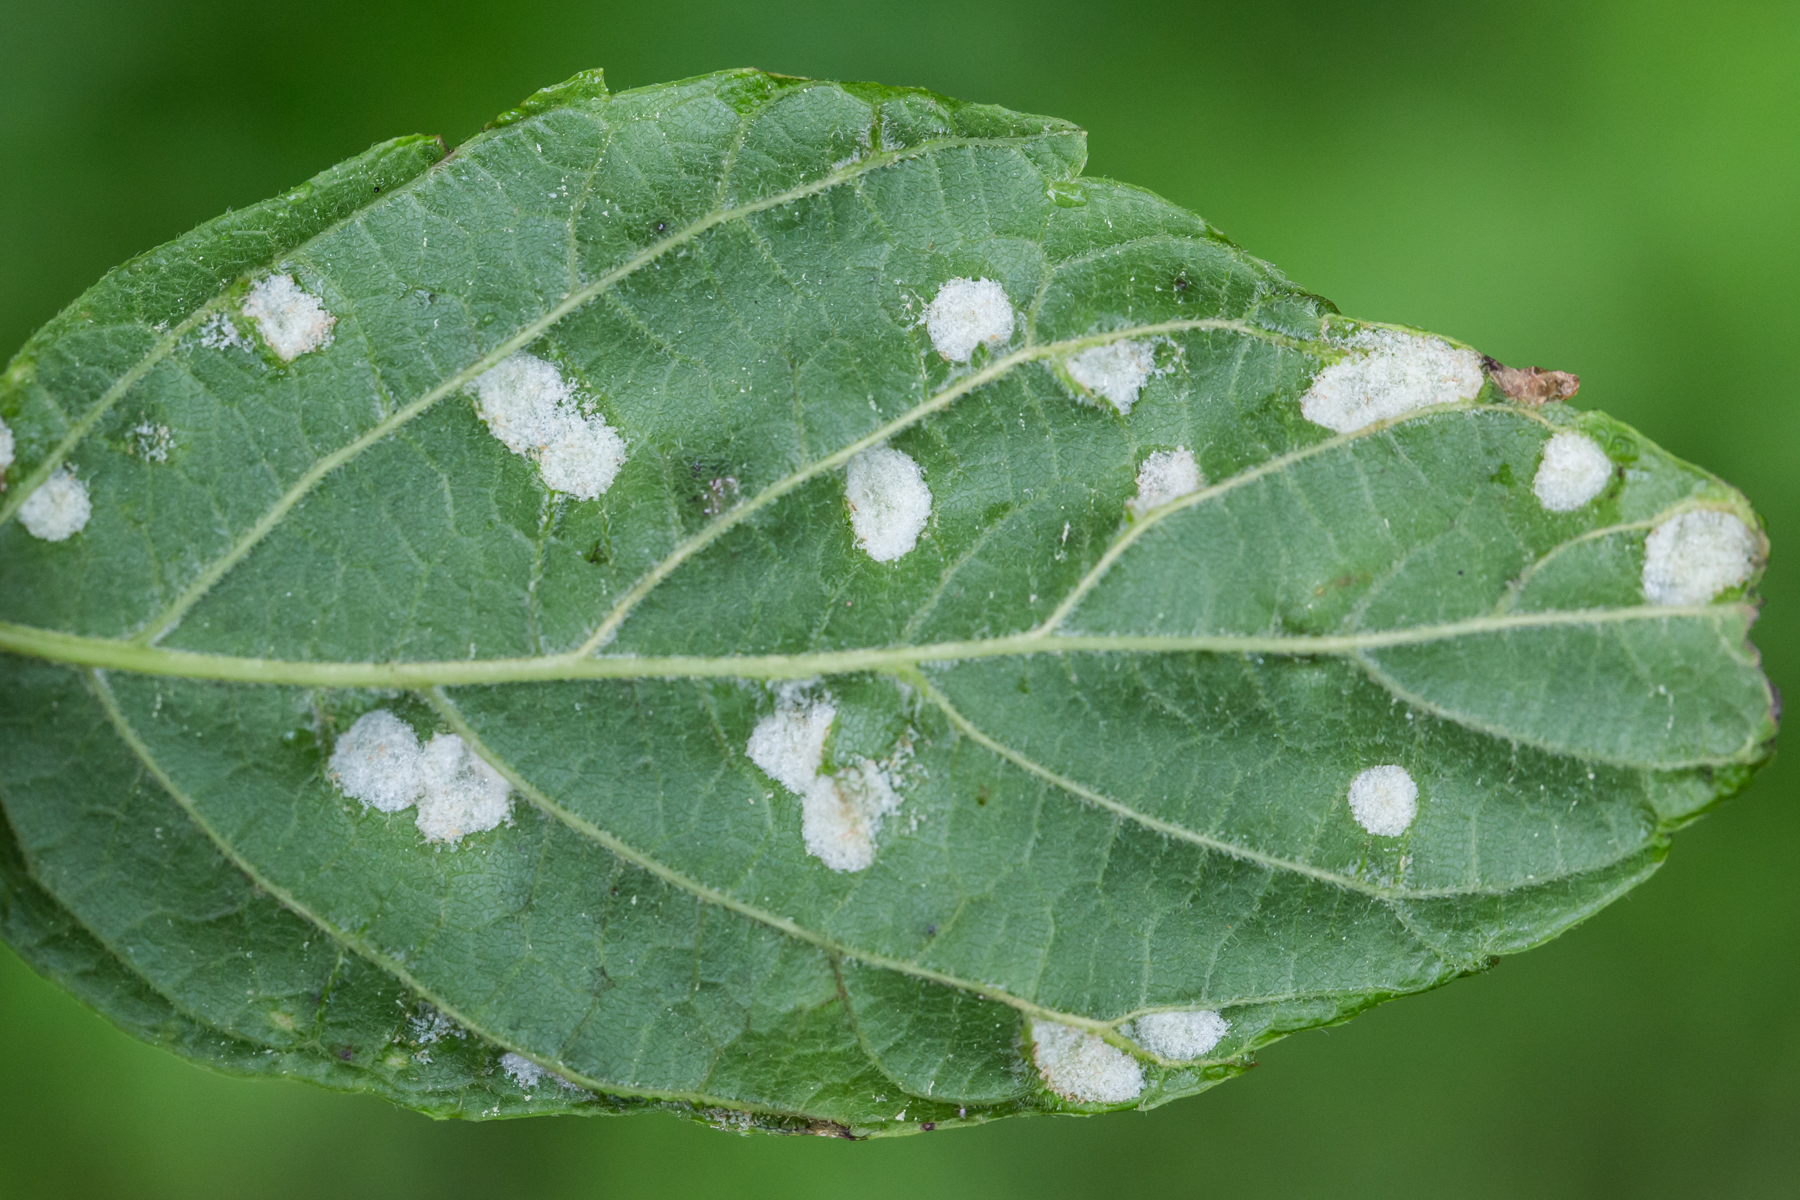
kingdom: Animalia
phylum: Arthropoda
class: Arachnida
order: Trombidiformes
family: Eriophyidae
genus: Aceria
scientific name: Aceria
